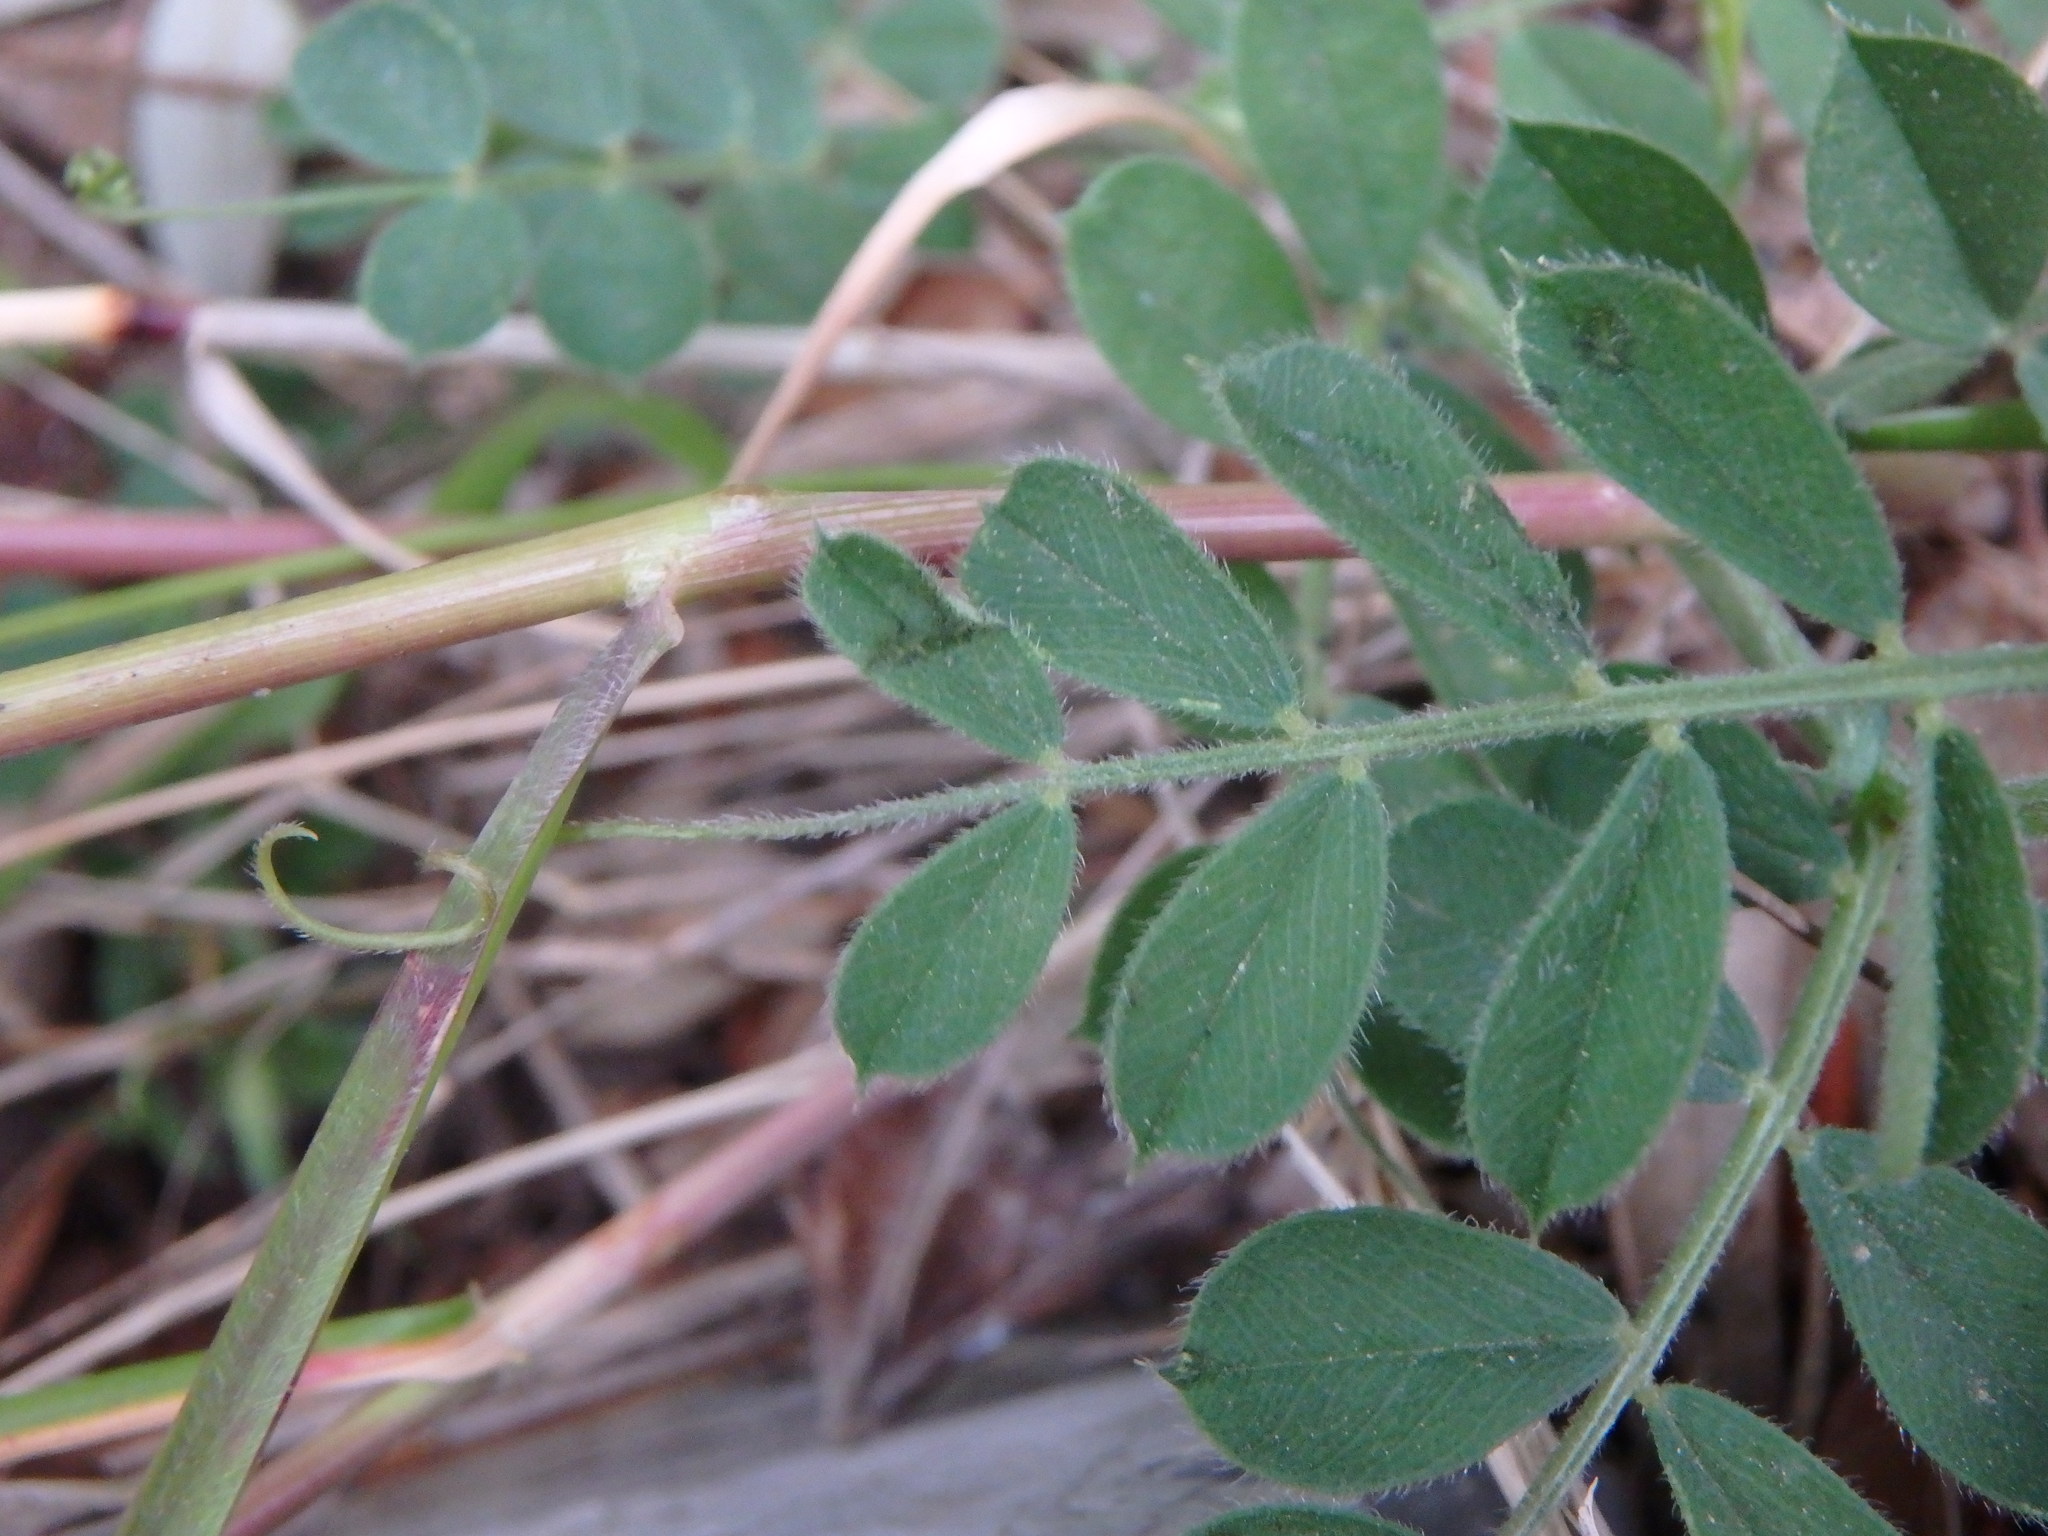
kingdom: Plantae
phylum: Tracheophyta
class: Magnoliopsida
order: Fabales
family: Fabaceae
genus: Vicia
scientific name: Vicia sativa
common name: Garden vetch
